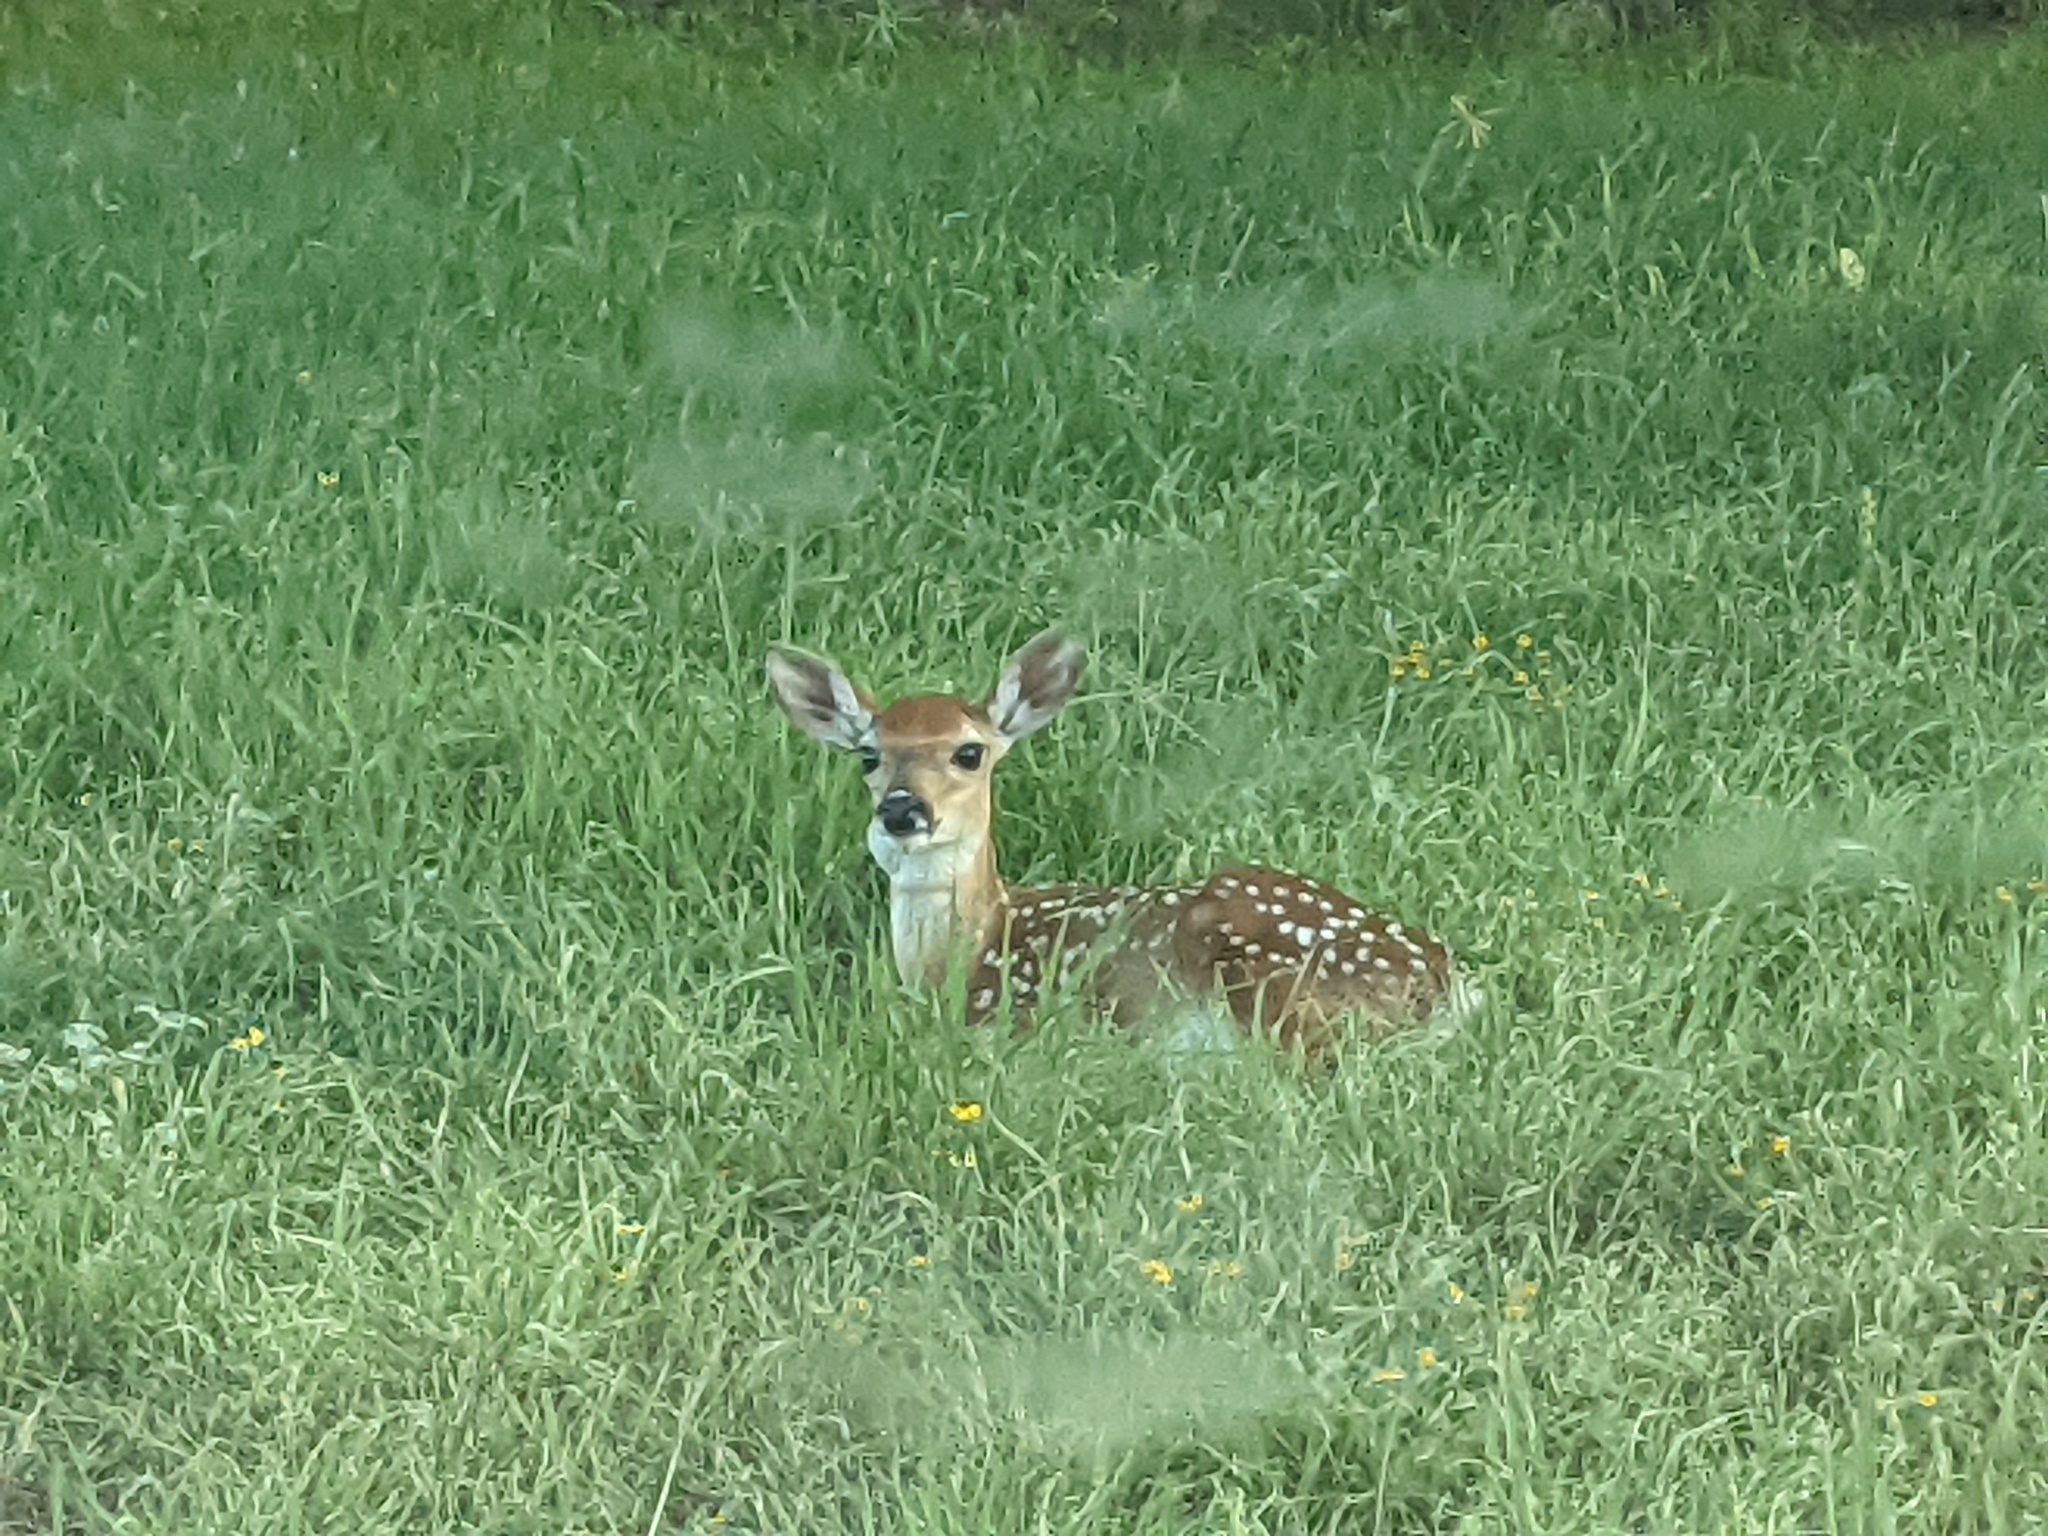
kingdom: Animalia
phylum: Chordata
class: Mammalia
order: Artiodactyla
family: Cervidae
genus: Odocoileus
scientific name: Odocoileus virginianus
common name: White-tailed deer
